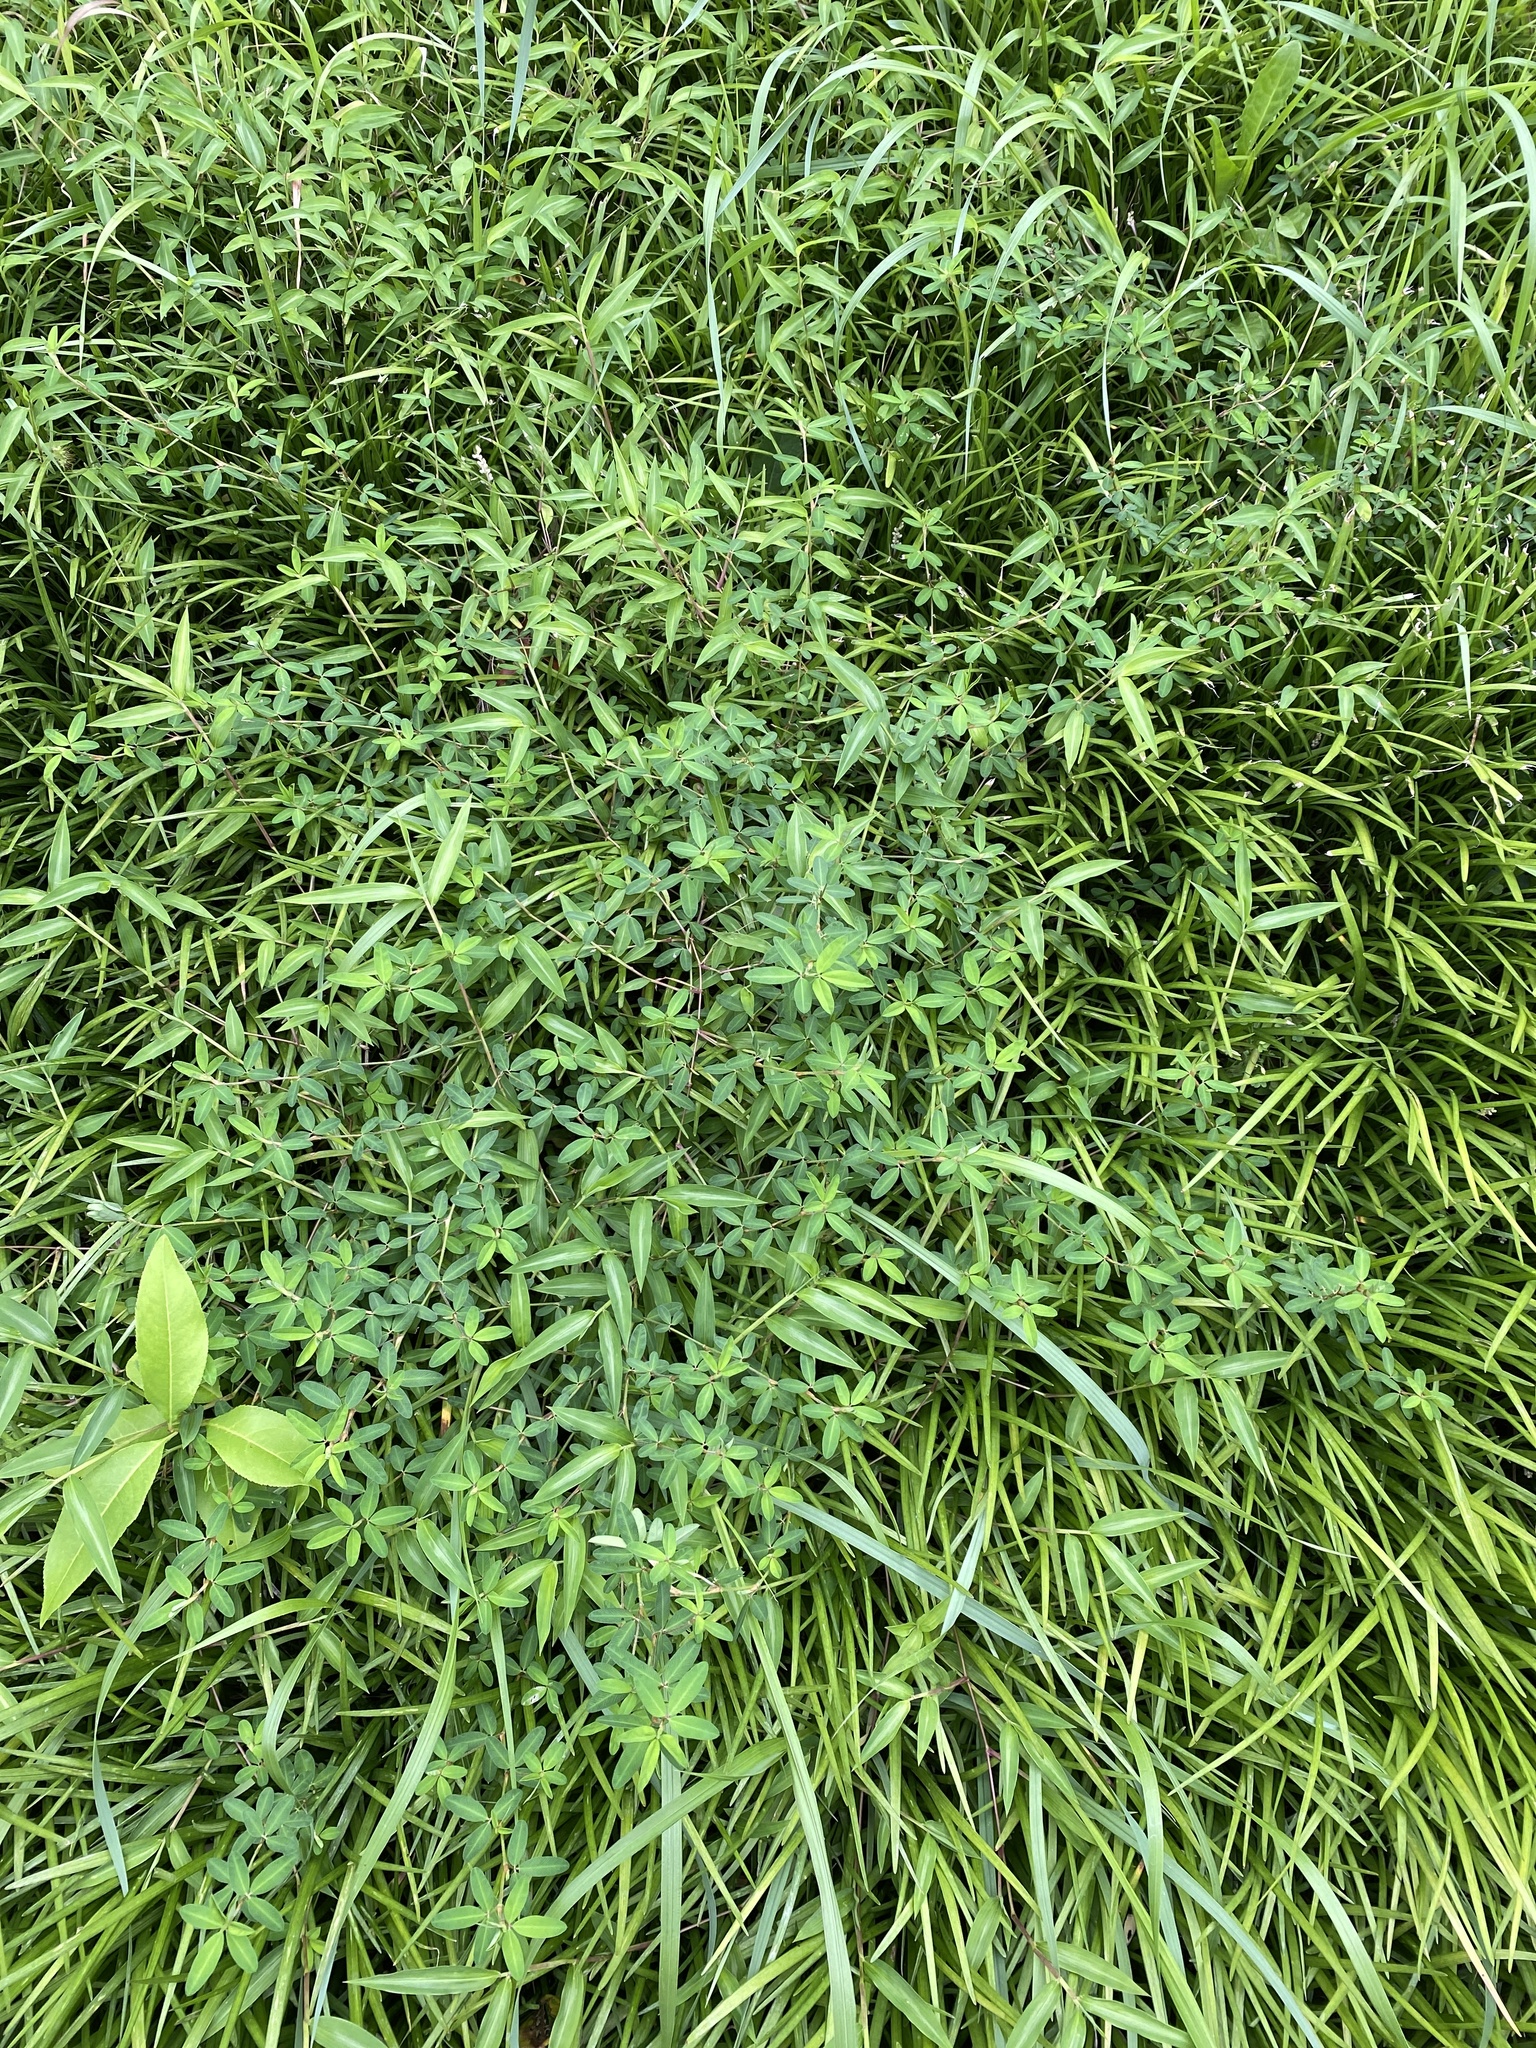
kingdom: Plantae
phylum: Tracheophyta
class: Magnoliopsida
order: Fabales
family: Fabaceae
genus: Kummerowia
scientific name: Kummerowia striata
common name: Japanese clover
